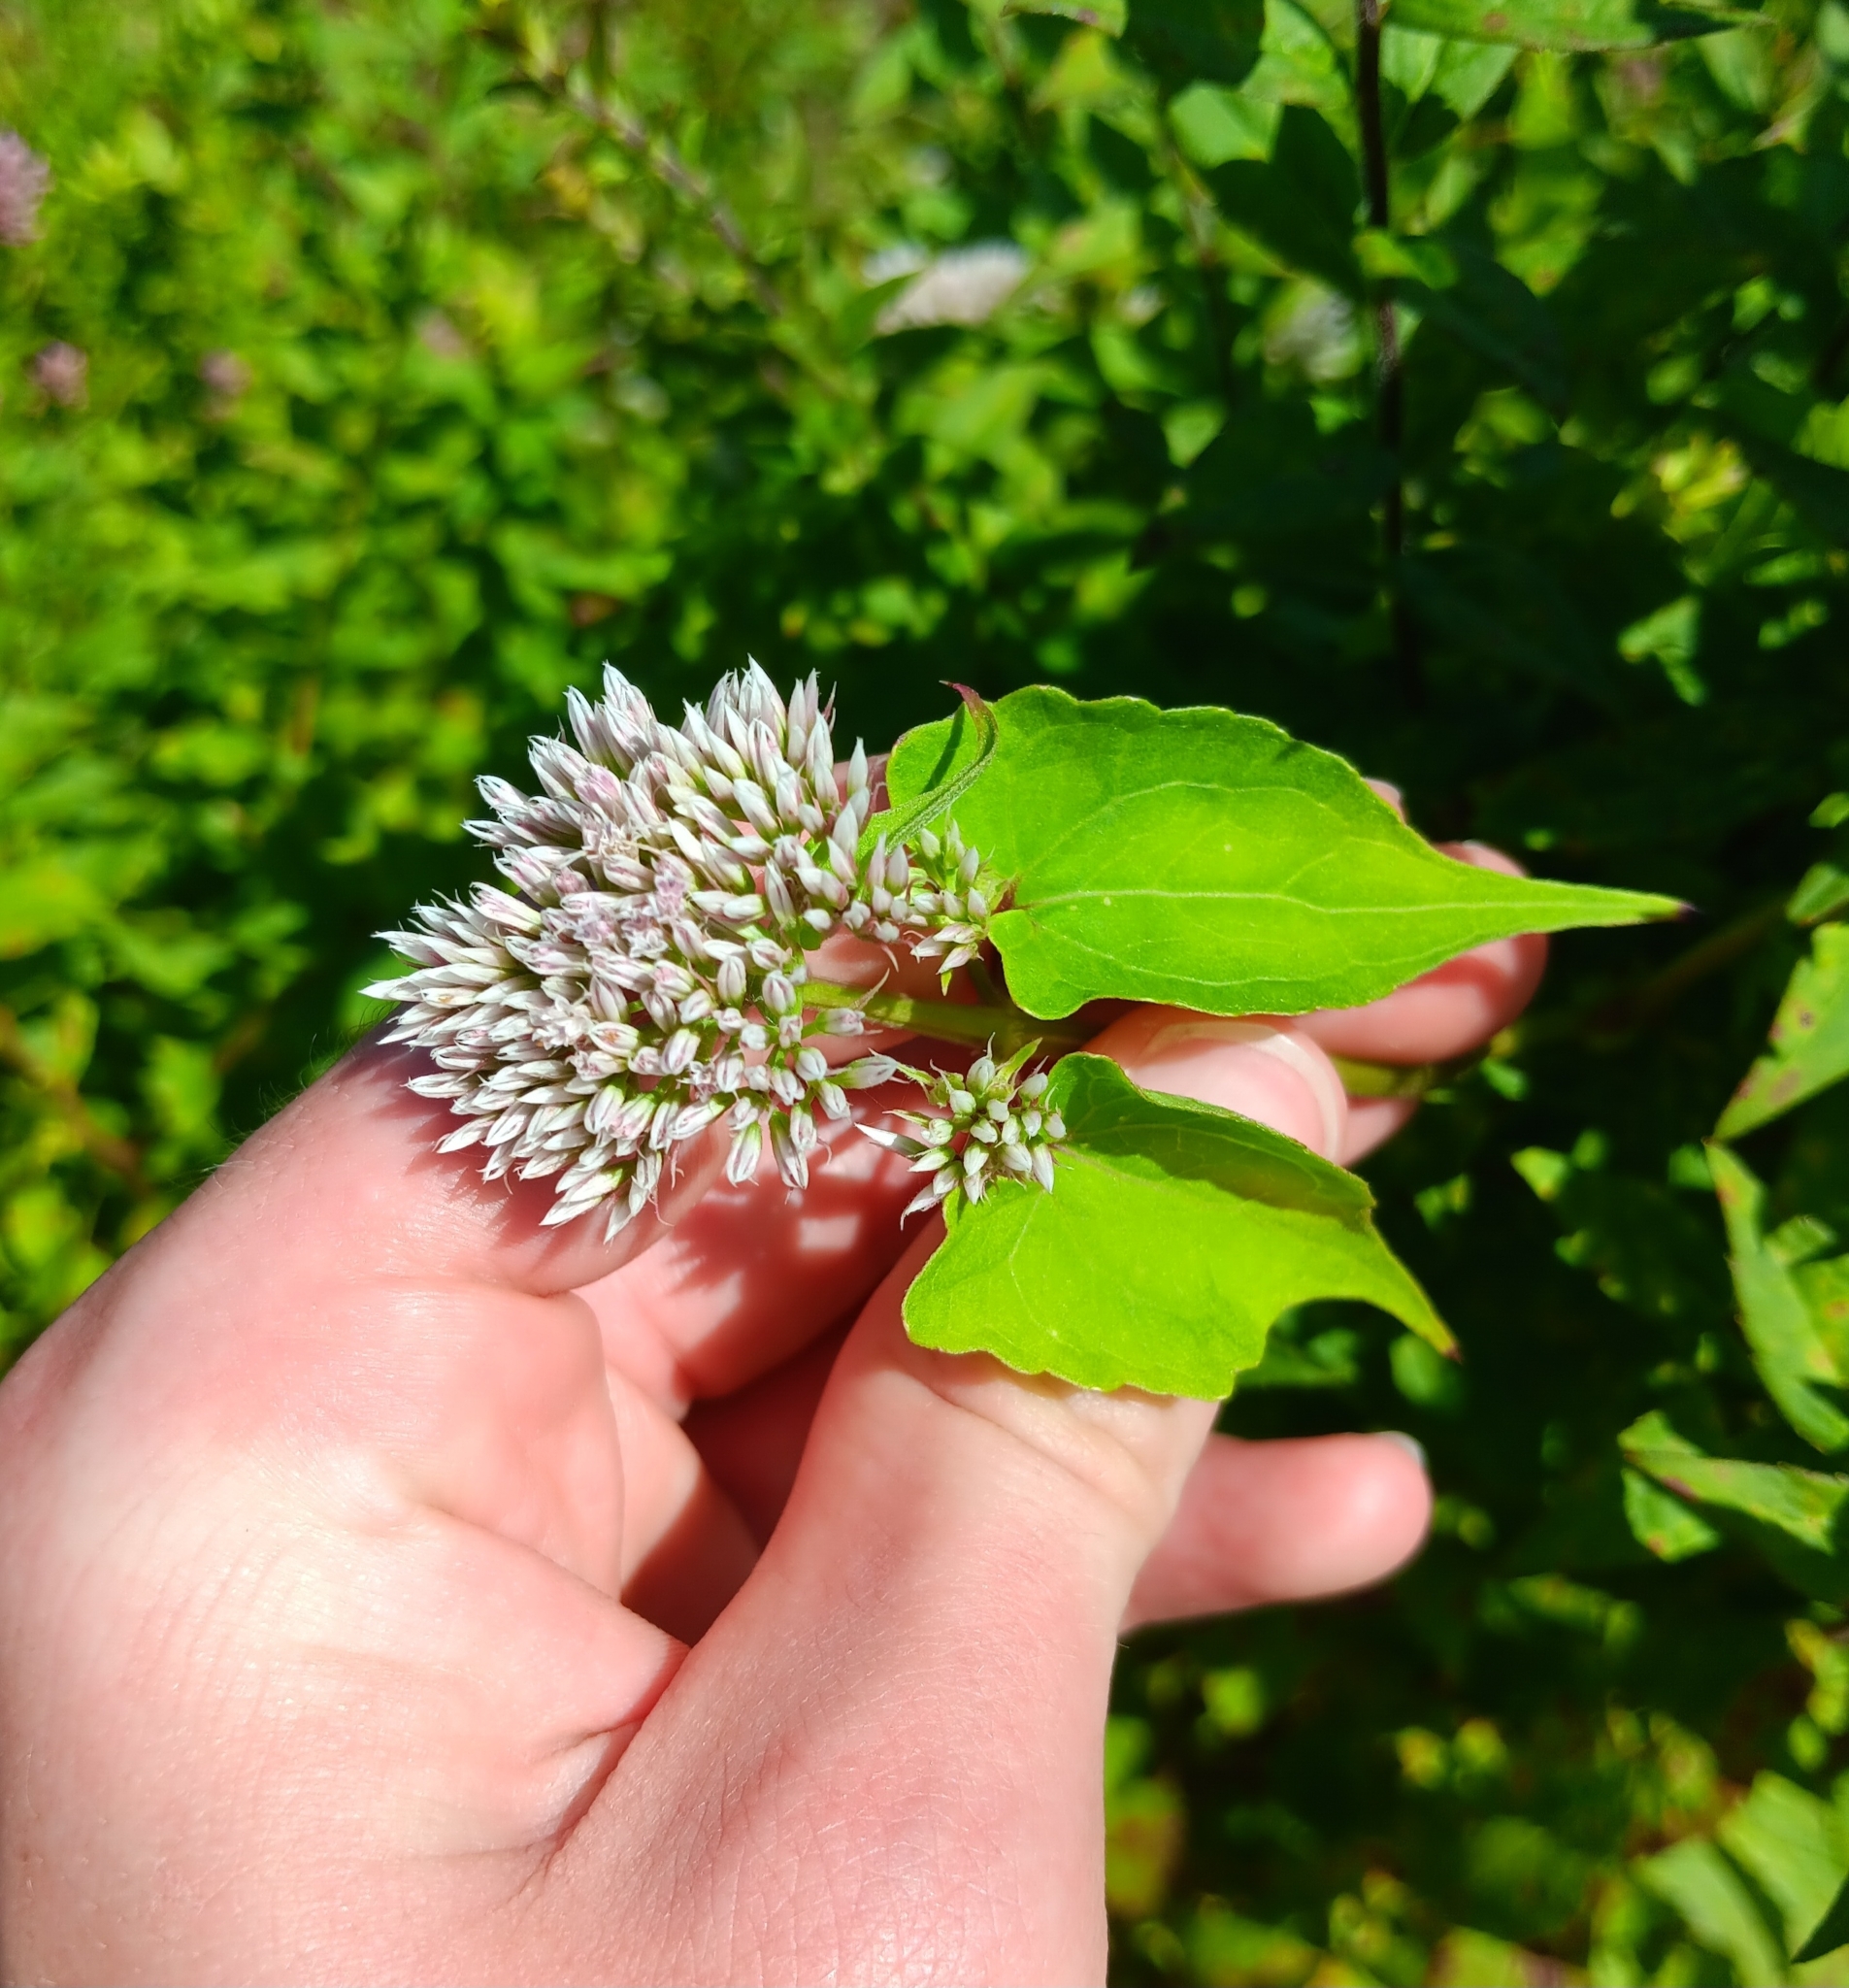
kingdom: Plantae
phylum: Tracheophyta
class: Magnoliopsida
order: Asterales
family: Asteraceae
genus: Mikania
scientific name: Mikania scandens
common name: Climbing hempvine
